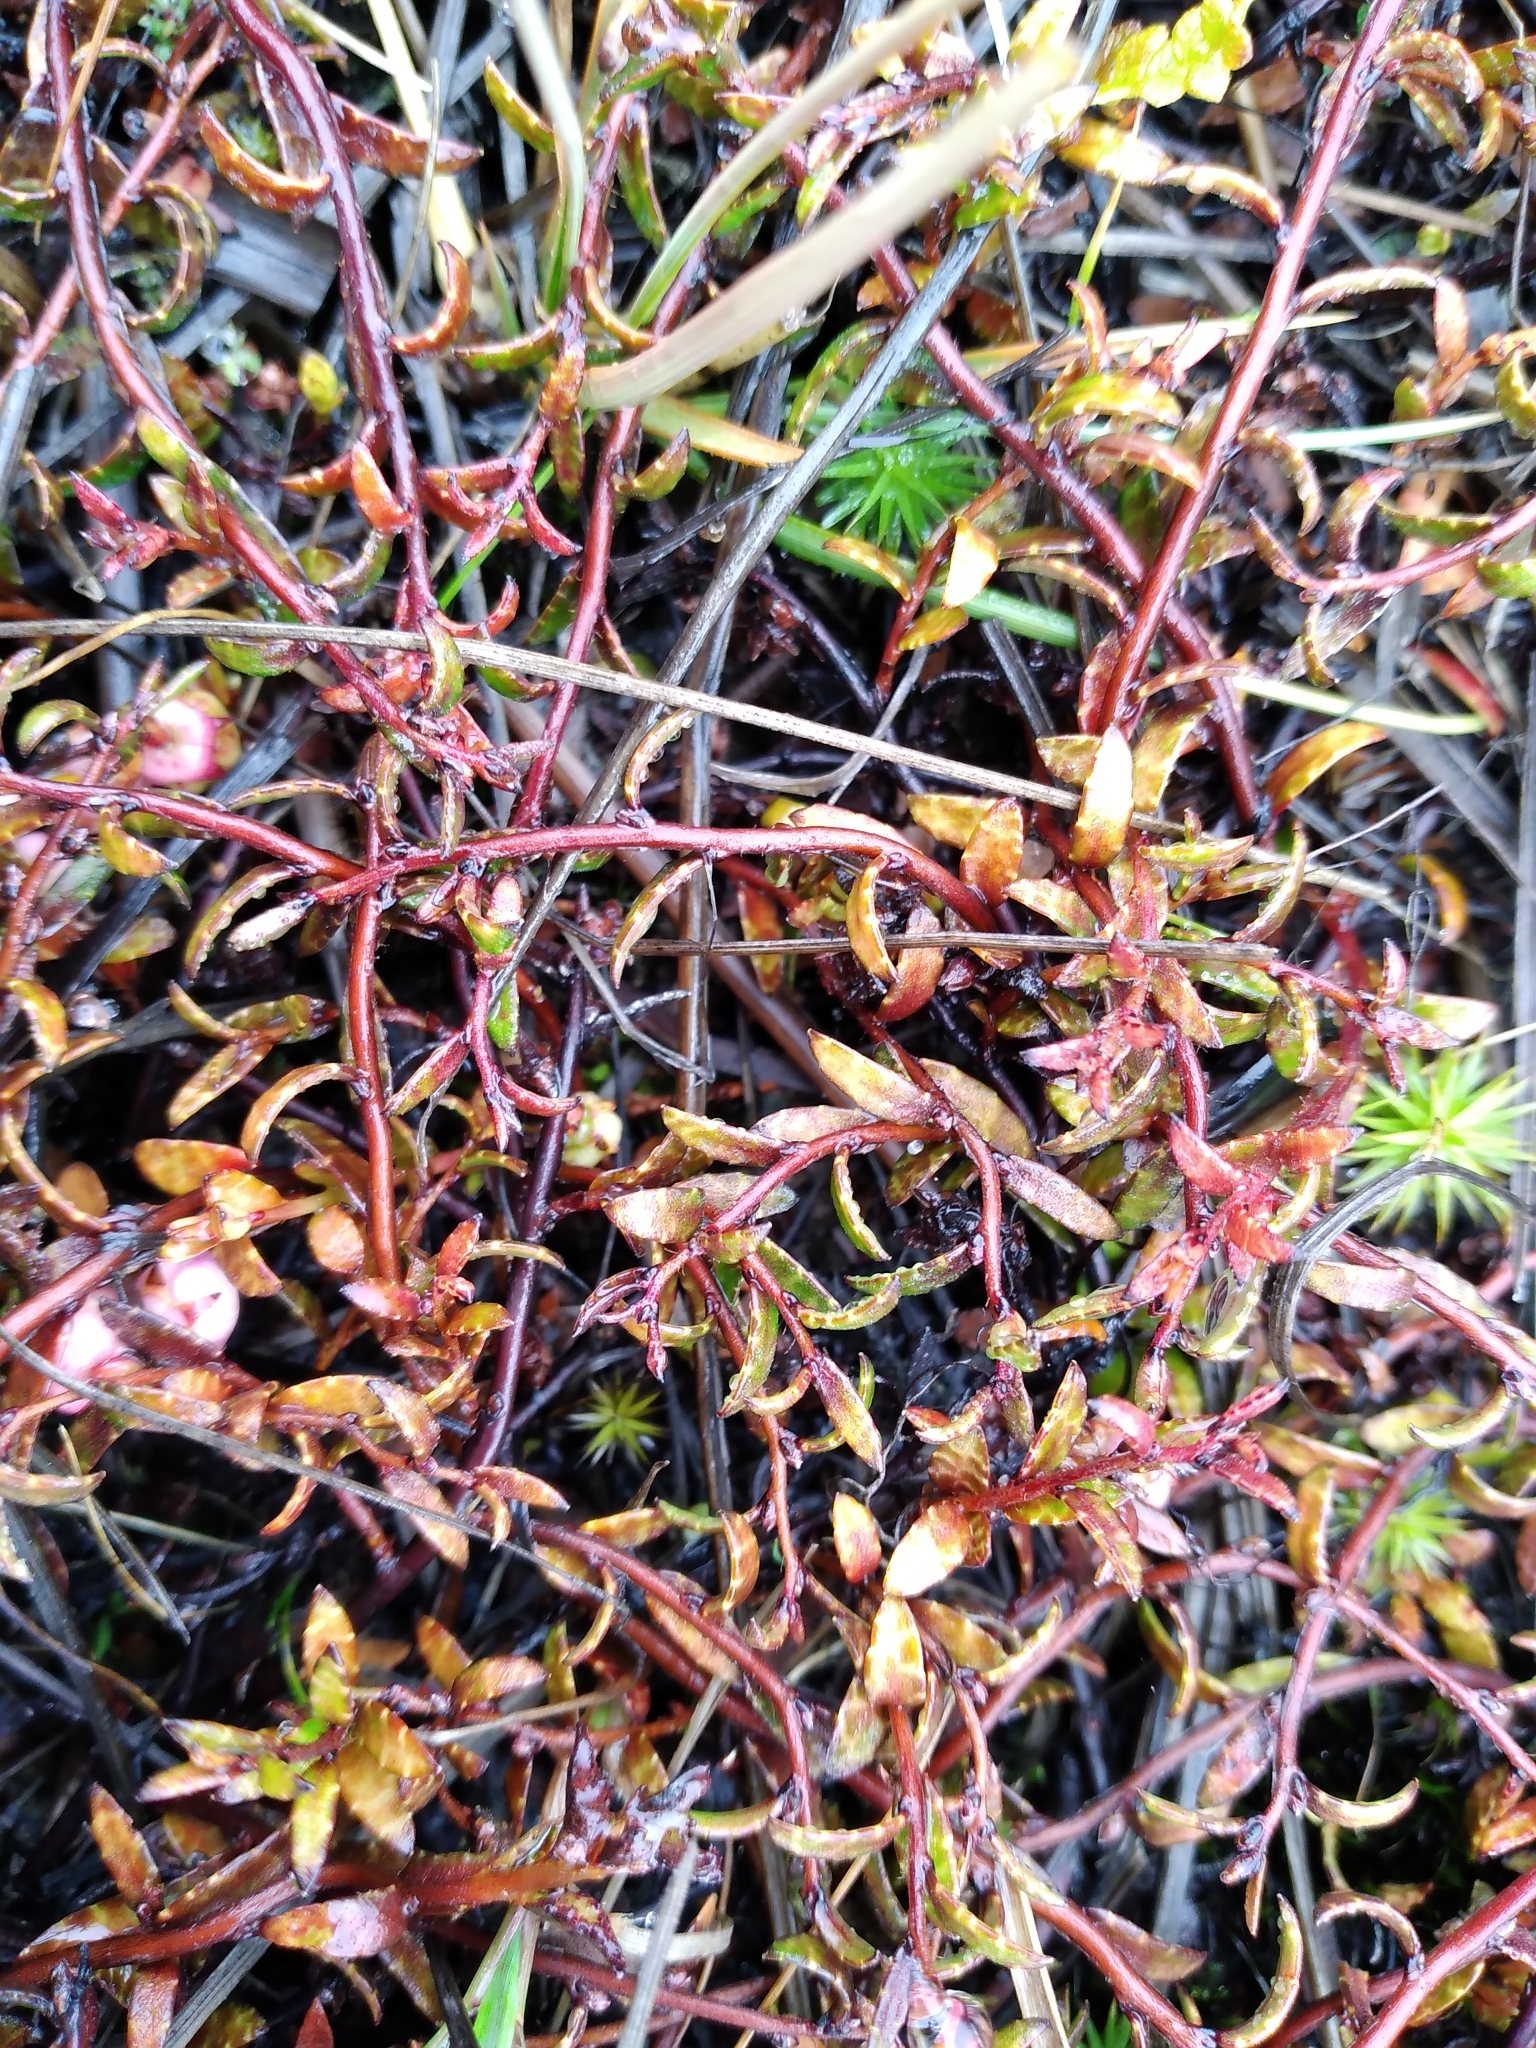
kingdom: Plantae
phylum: Tracheophyta
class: Magnoliopsida
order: Ericales
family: Ericaceae
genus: Gaultheria
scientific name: Gaultheria macrostigma
